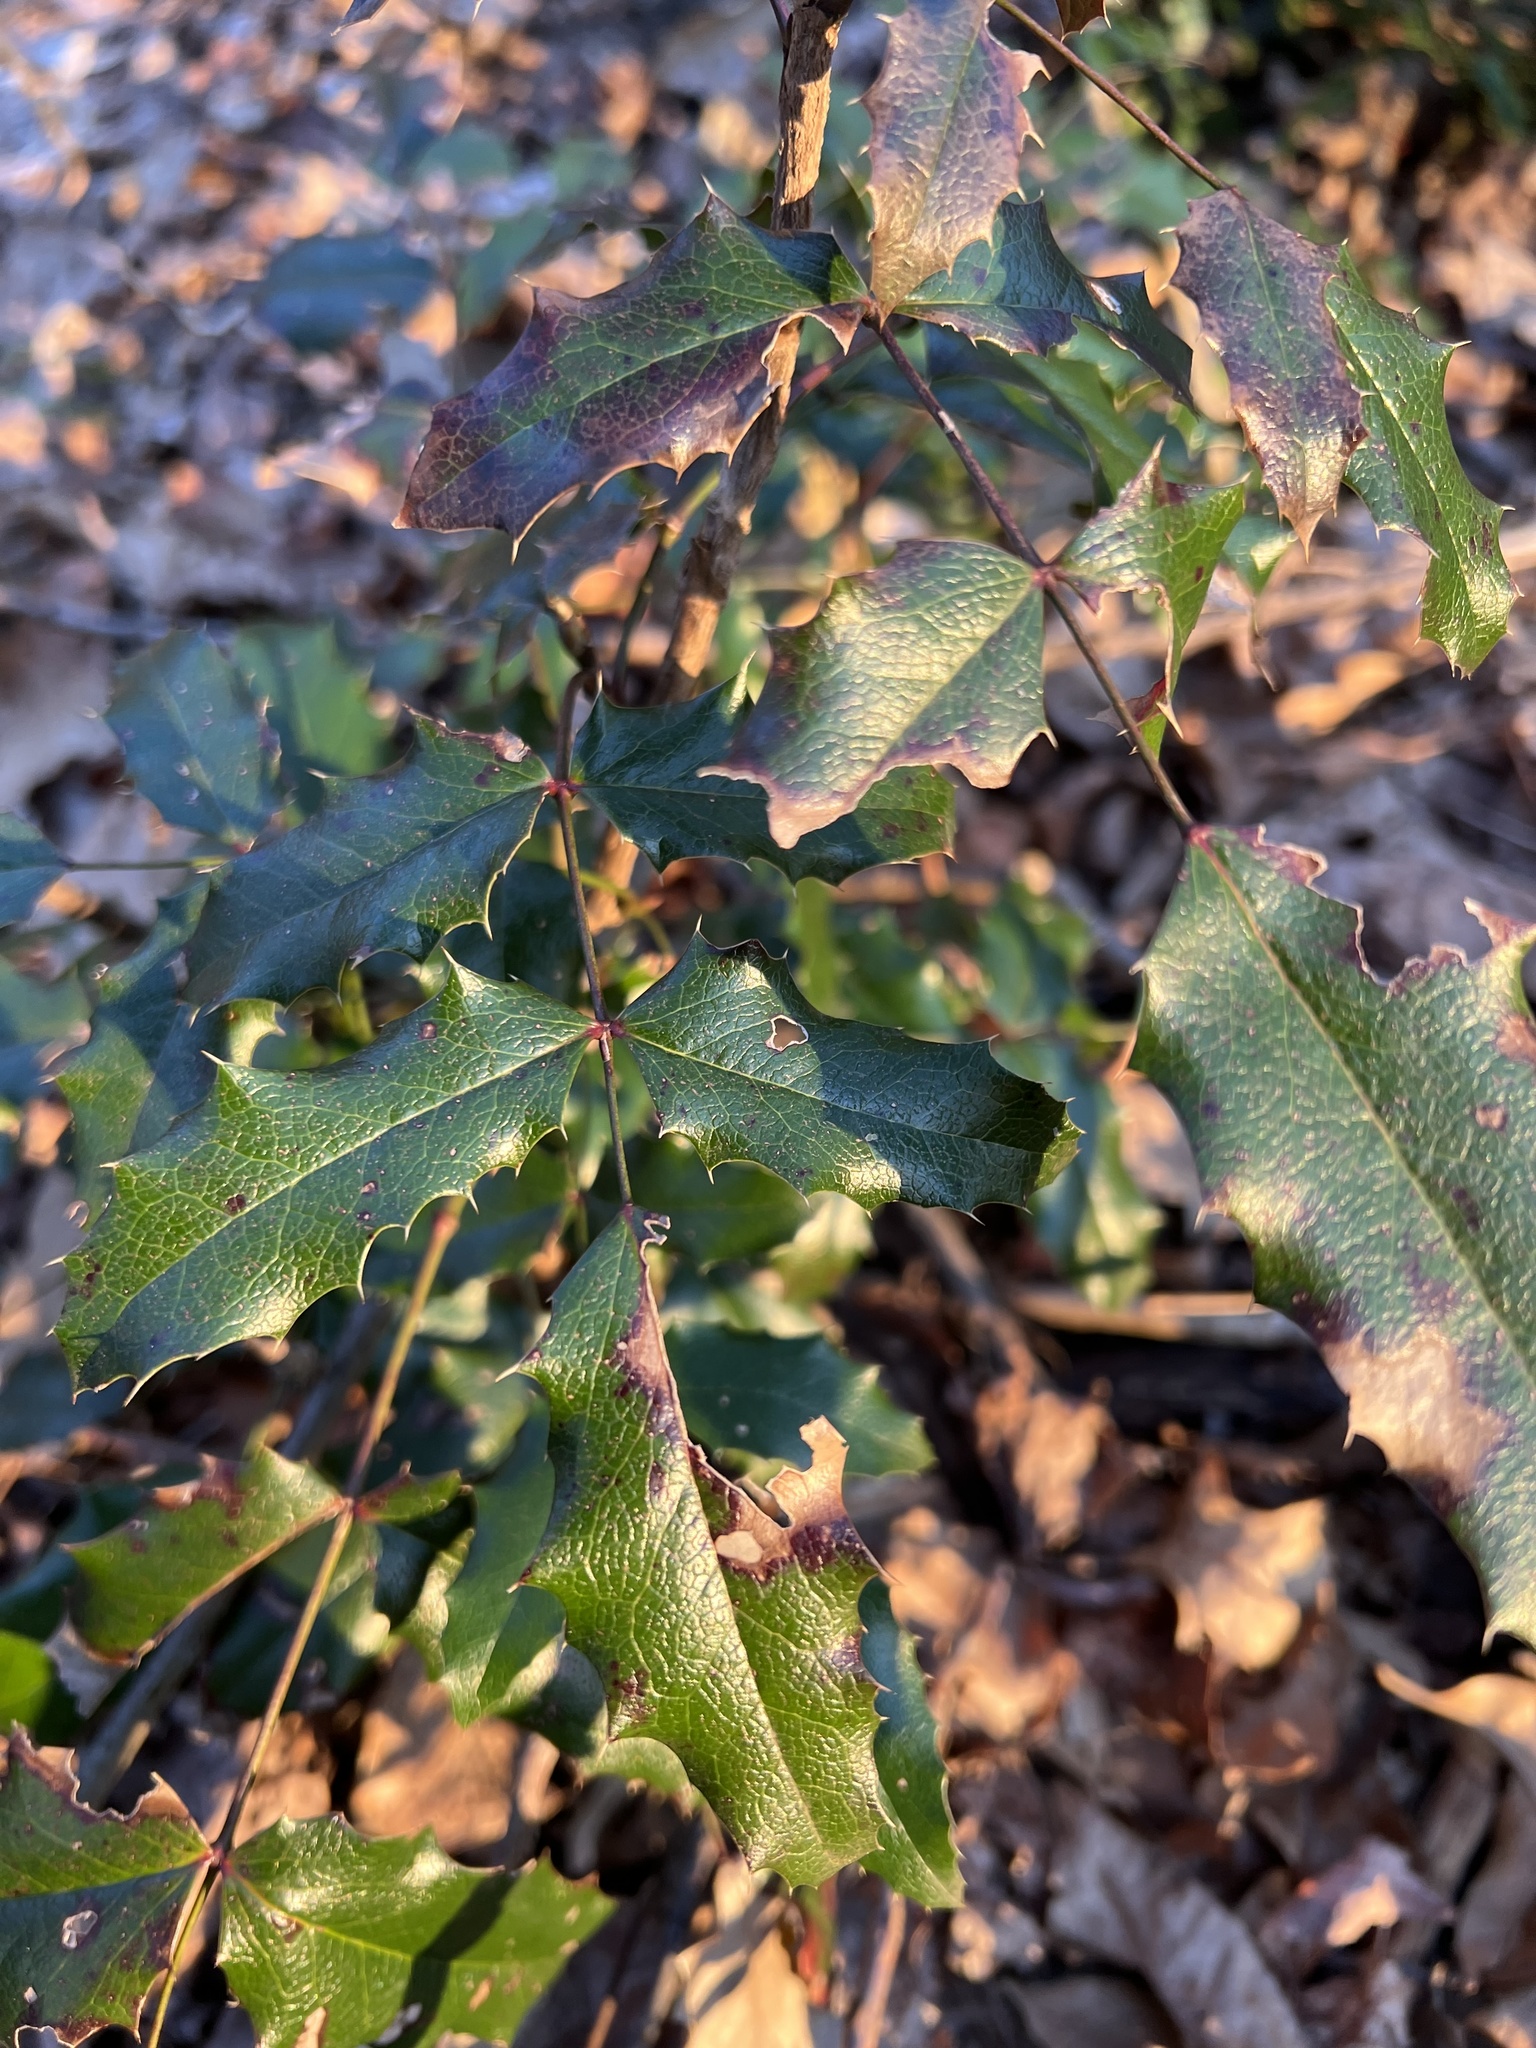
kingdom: Plantae
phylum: Tracheophyta
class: Magnoliopsida
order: Ranunculales
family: Berberidaceae
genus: Mahonia
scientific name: Mahonia aquifolium
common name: Oregon-grape
